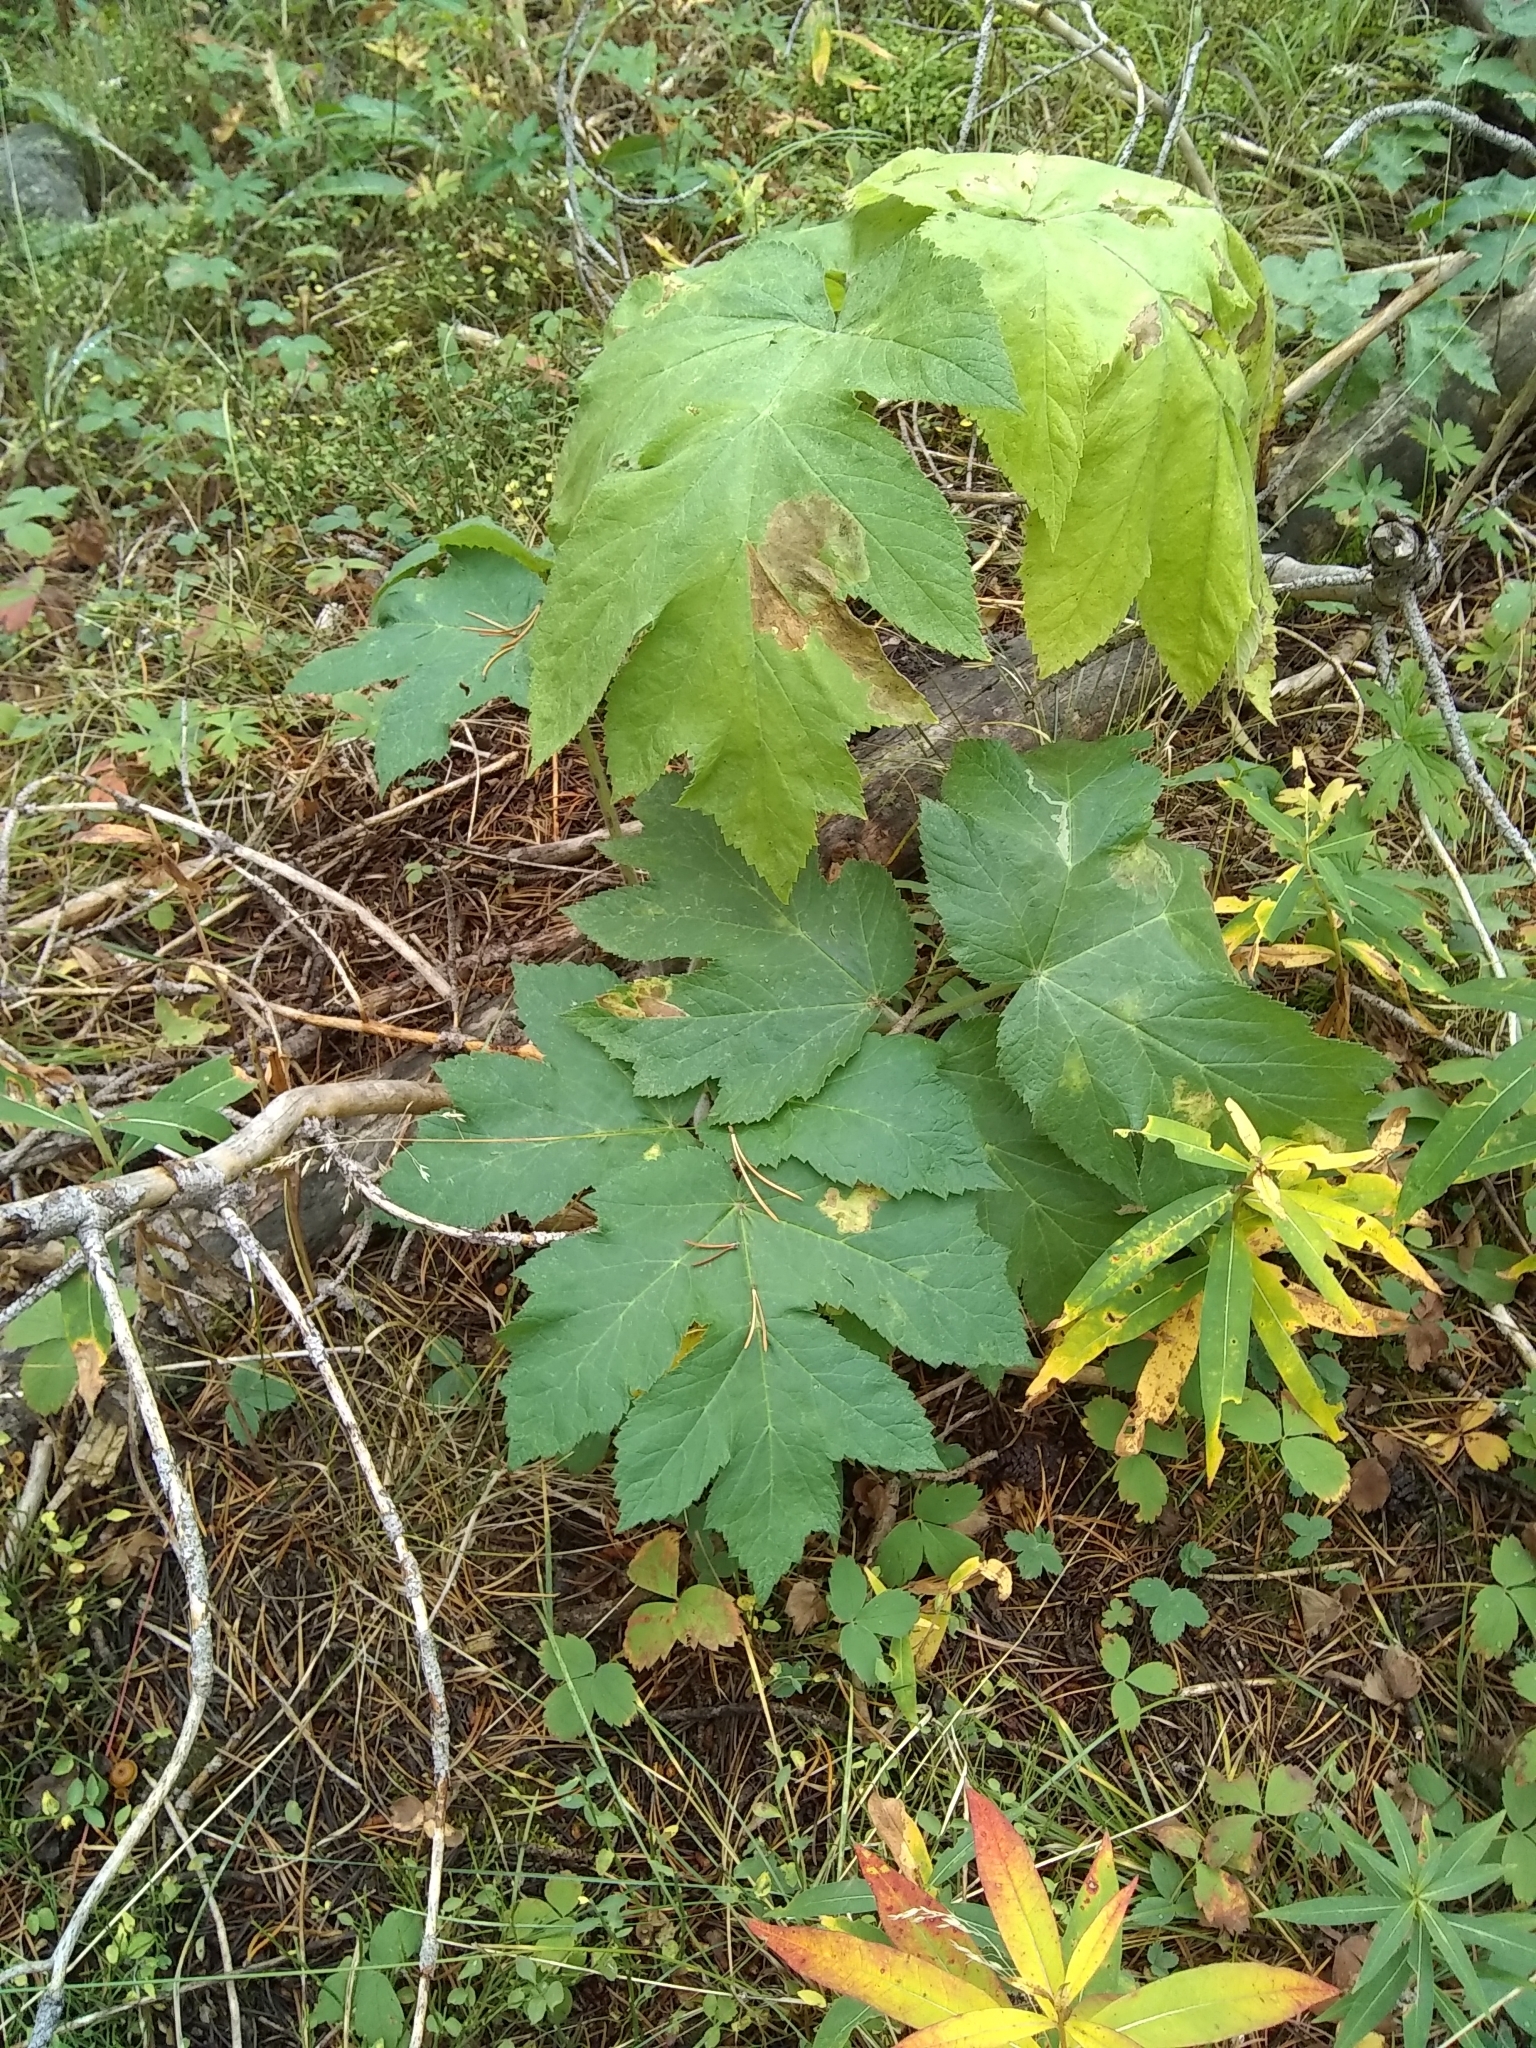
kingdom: Plantae
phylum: Tracheophyta
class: Magnoliopsida
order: Apiales
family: Apiaceae
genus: Heracleum
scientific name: Heracleum maximum
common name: American cow parsnip
